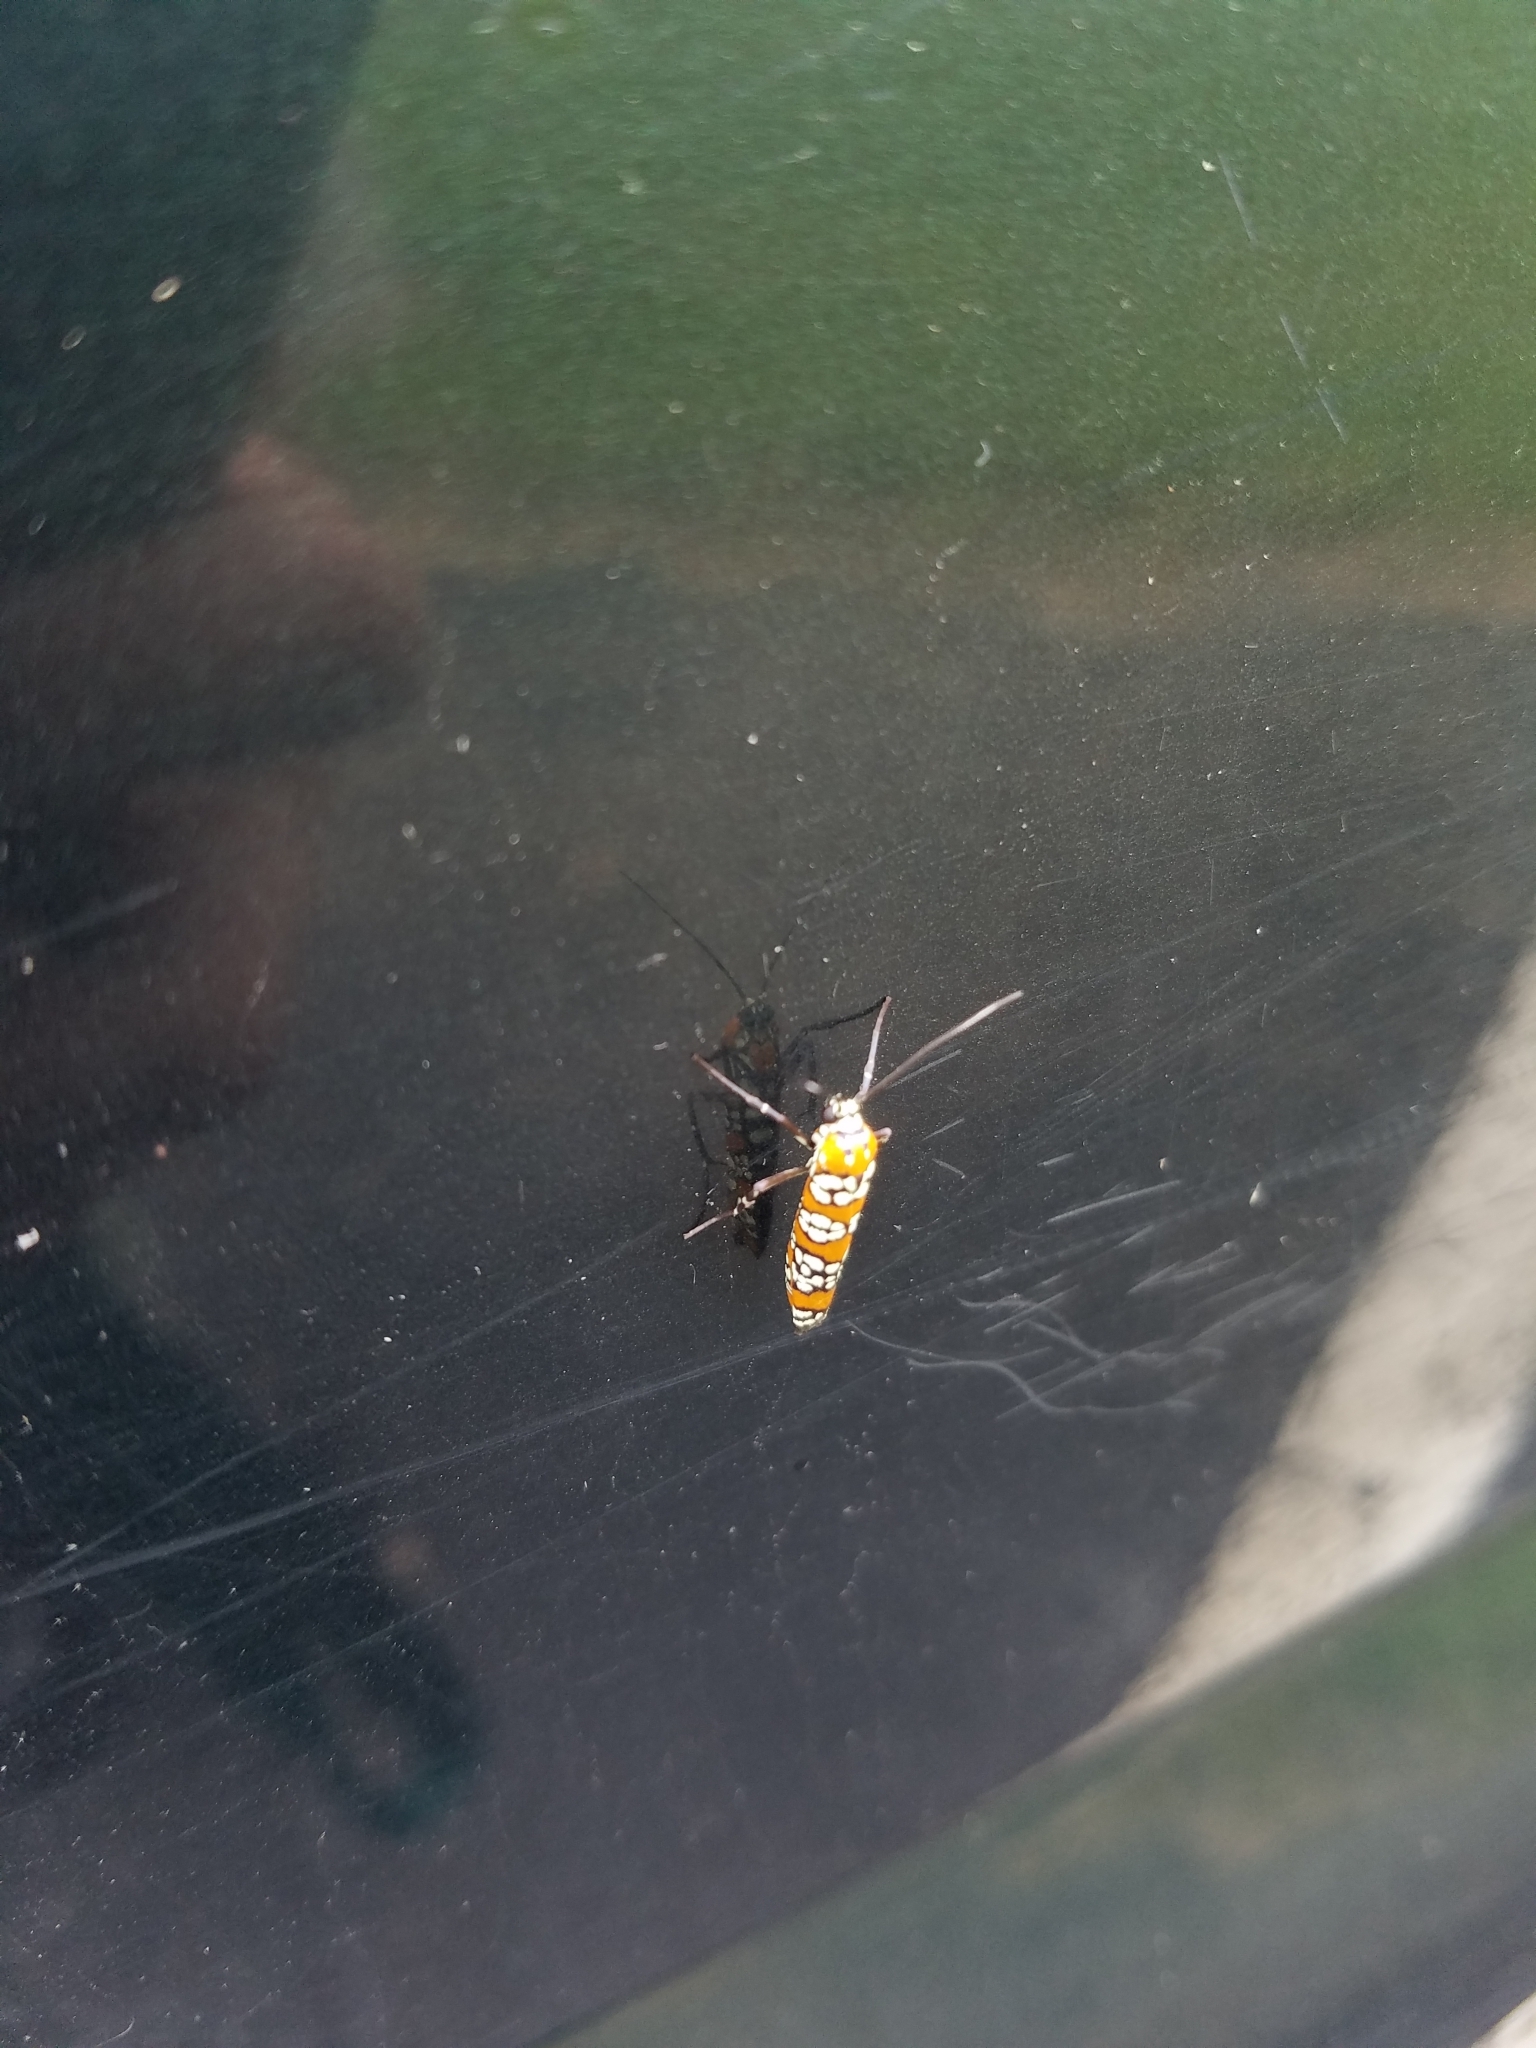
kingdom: Animalia
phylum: Arthropoda
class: Insecta
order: Lepidoptera
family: Attevidae
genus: Atteva
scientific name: Atteva punctella
